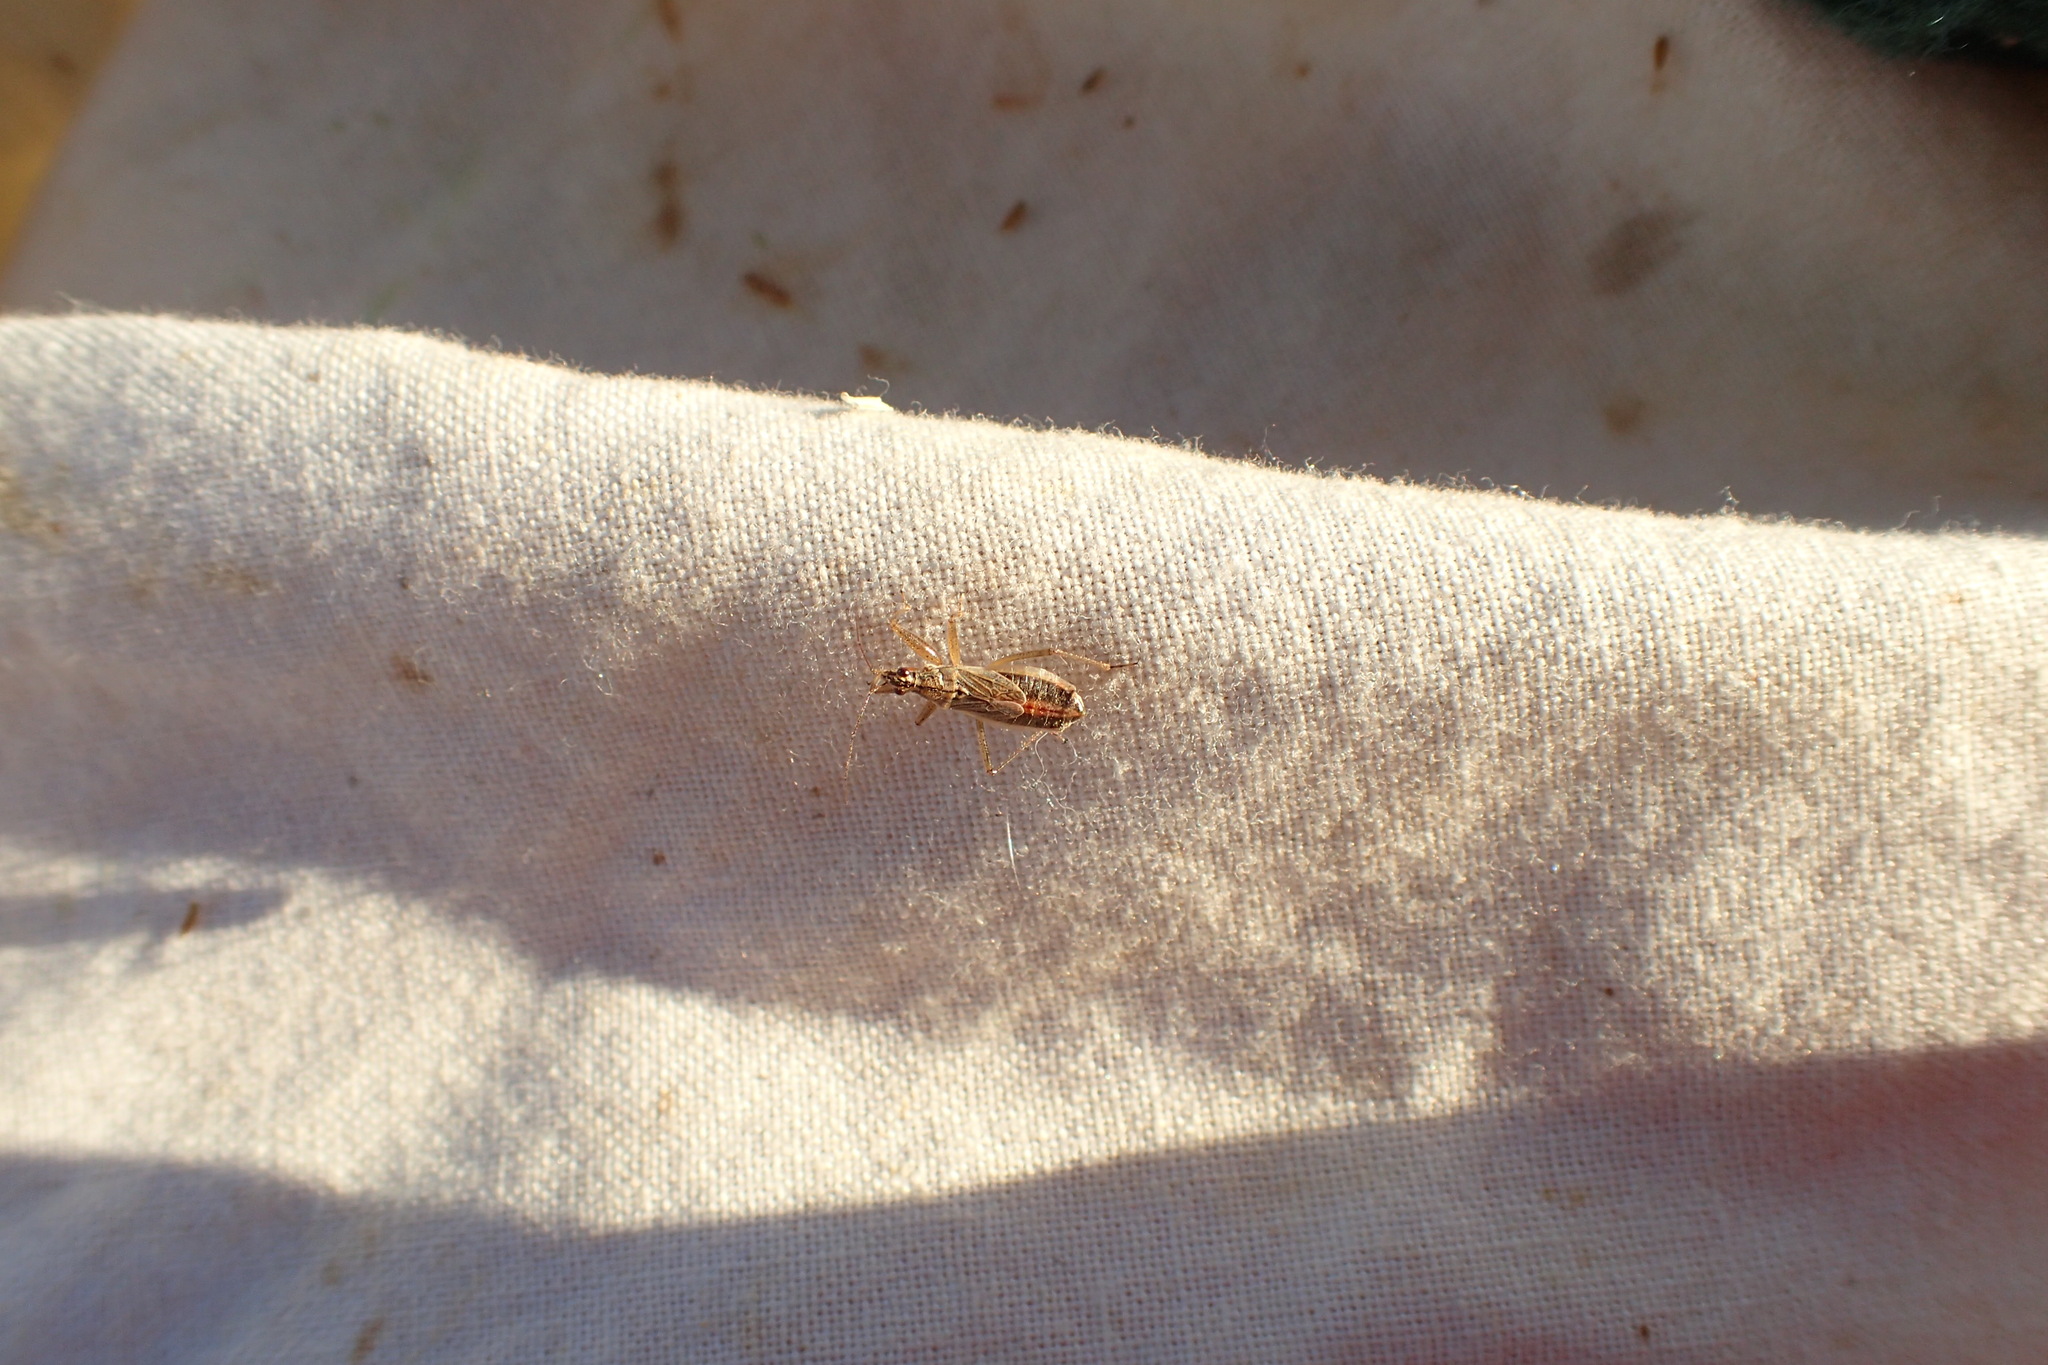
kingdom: Animalia
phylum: Arthropoda
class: Insecta
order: Hemiptera
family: Nabidae
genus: Nabis
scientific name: Nabis flavomarginatus
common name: Broad damselbug
